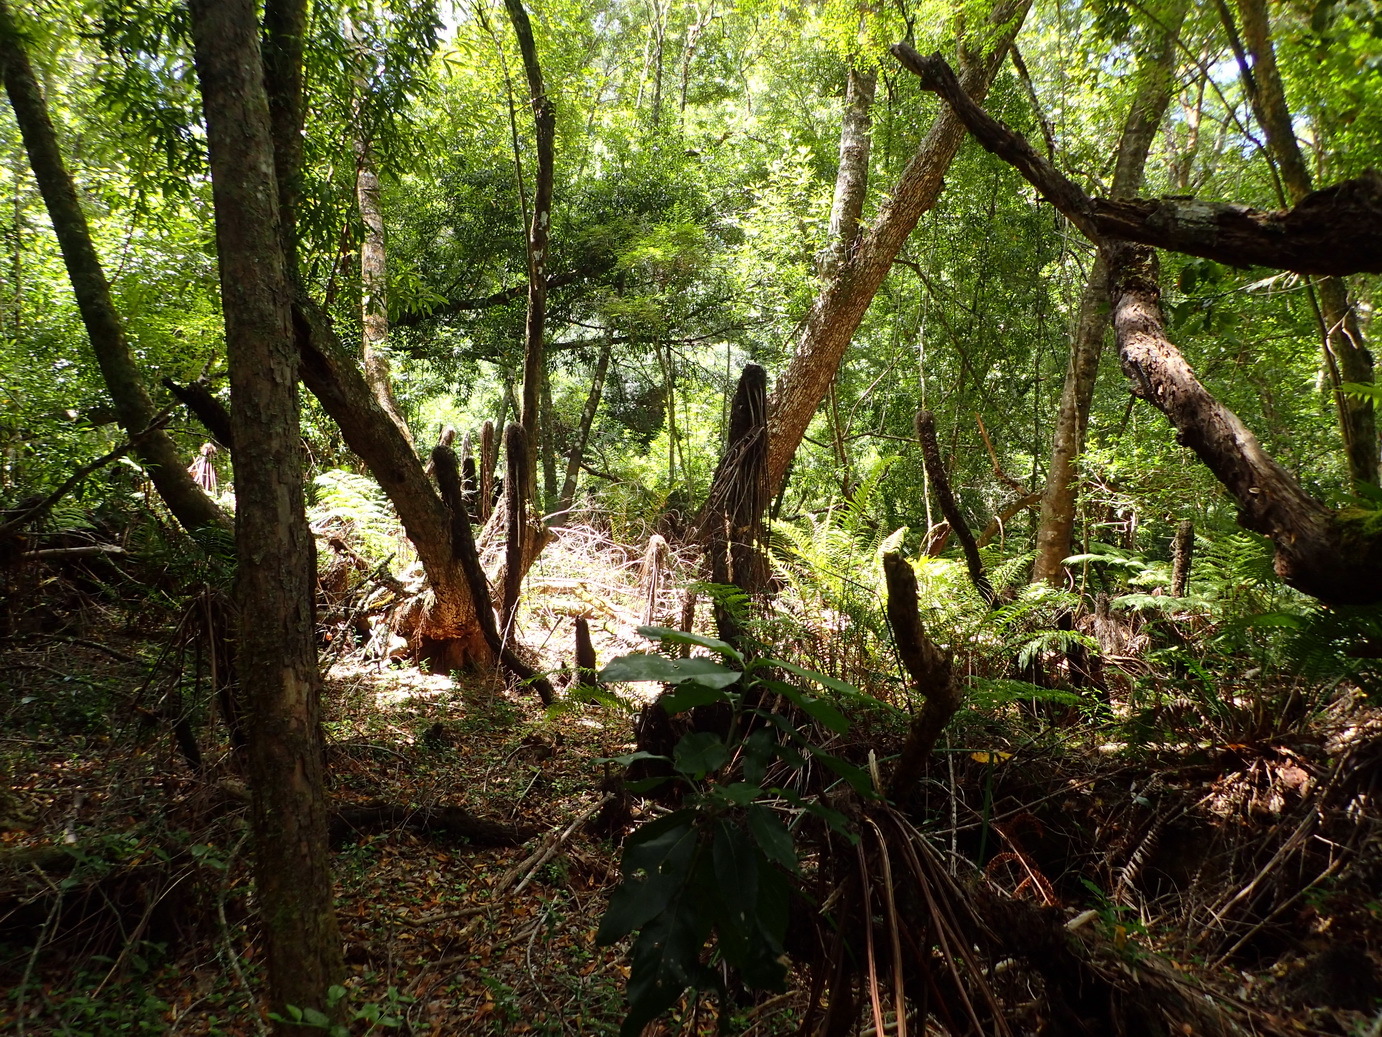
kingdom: Plantae
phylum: Tracheophyta
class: Polypodiopsida
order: Cyatheales
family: Cyatheaceae
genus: Gymnosphaera
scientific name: Gymnosphaera capensis
